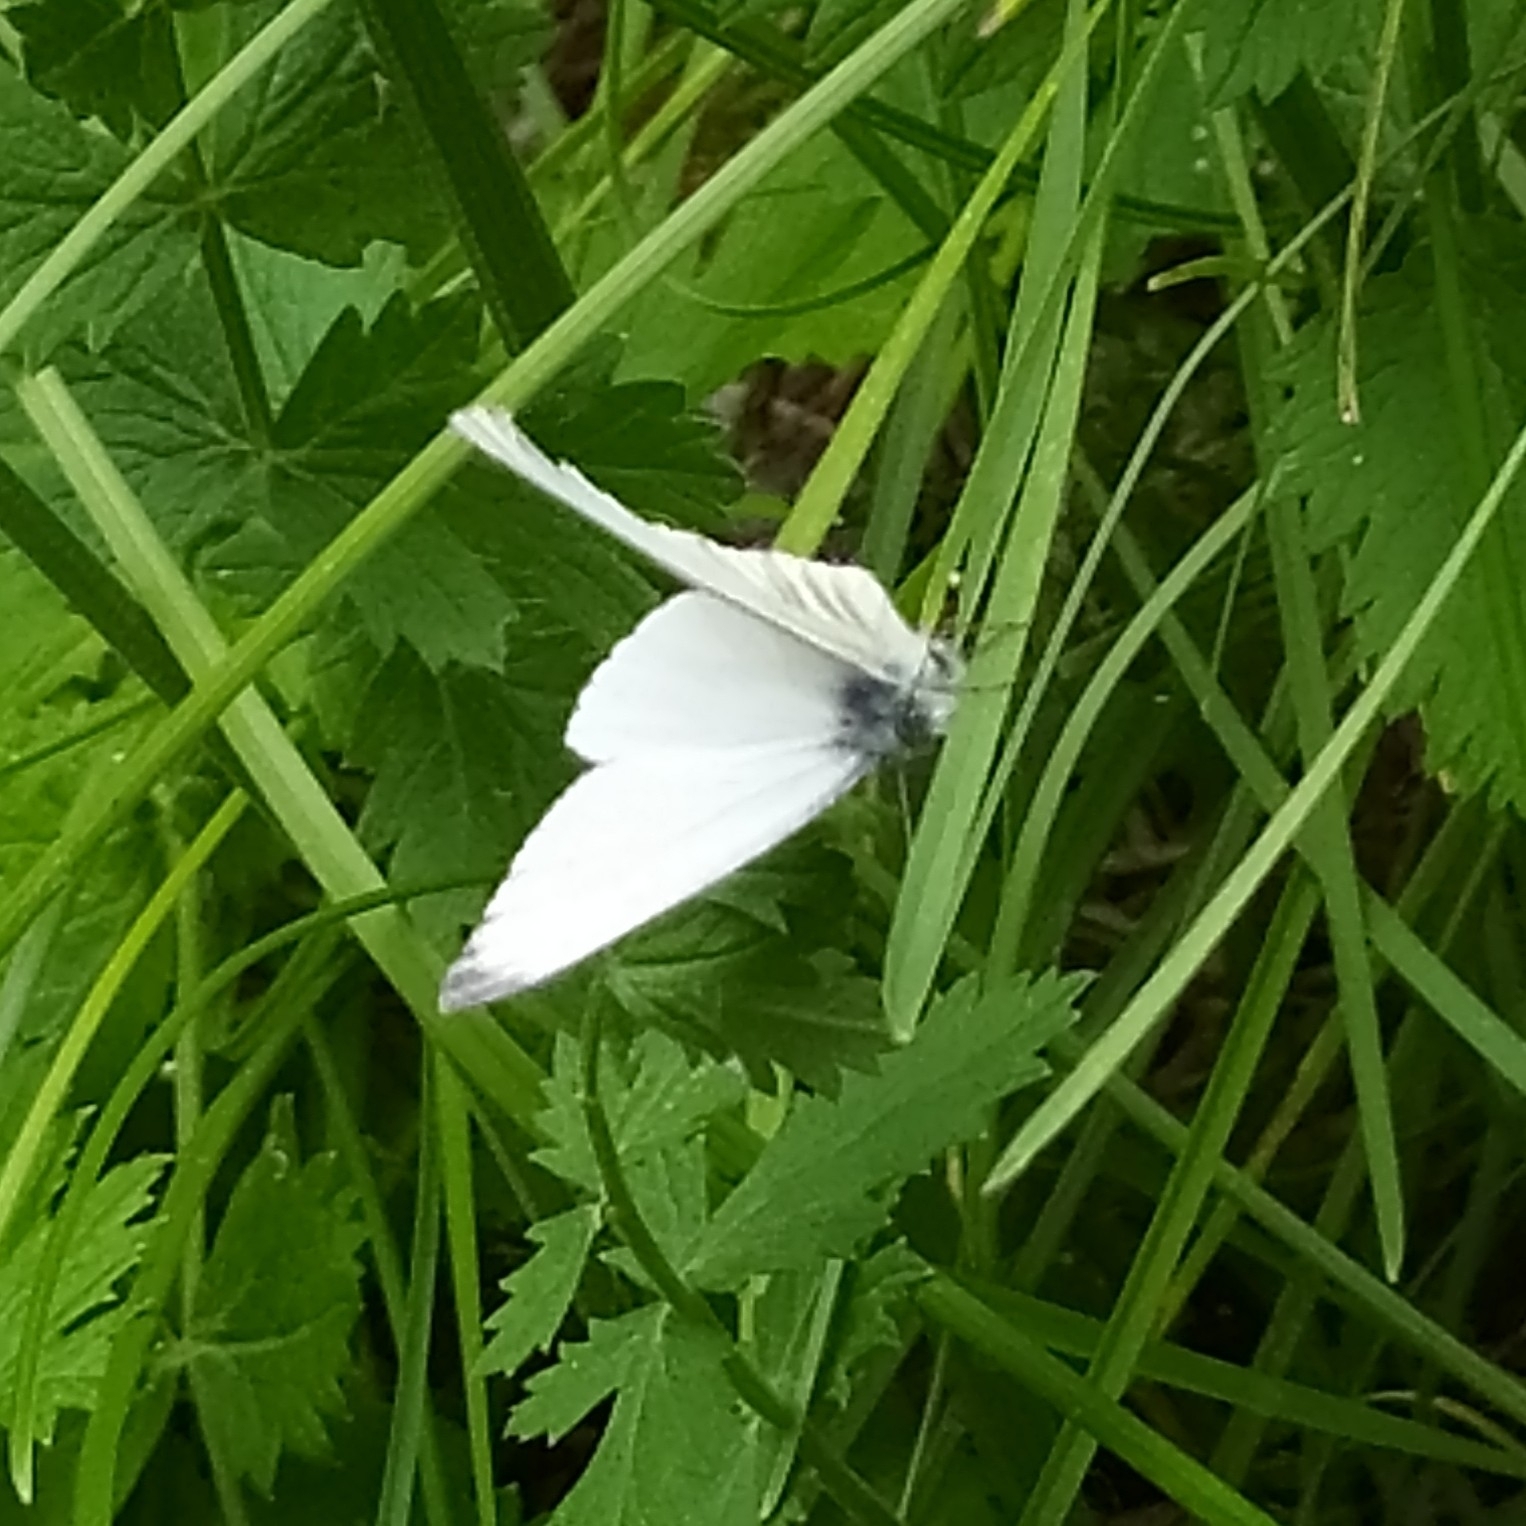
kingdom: Animalia
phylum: Arthropoda
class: Insecta
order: Lepidoptera
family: Pieridae
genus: Pieris
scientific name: Pieris rapae
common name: Small white
